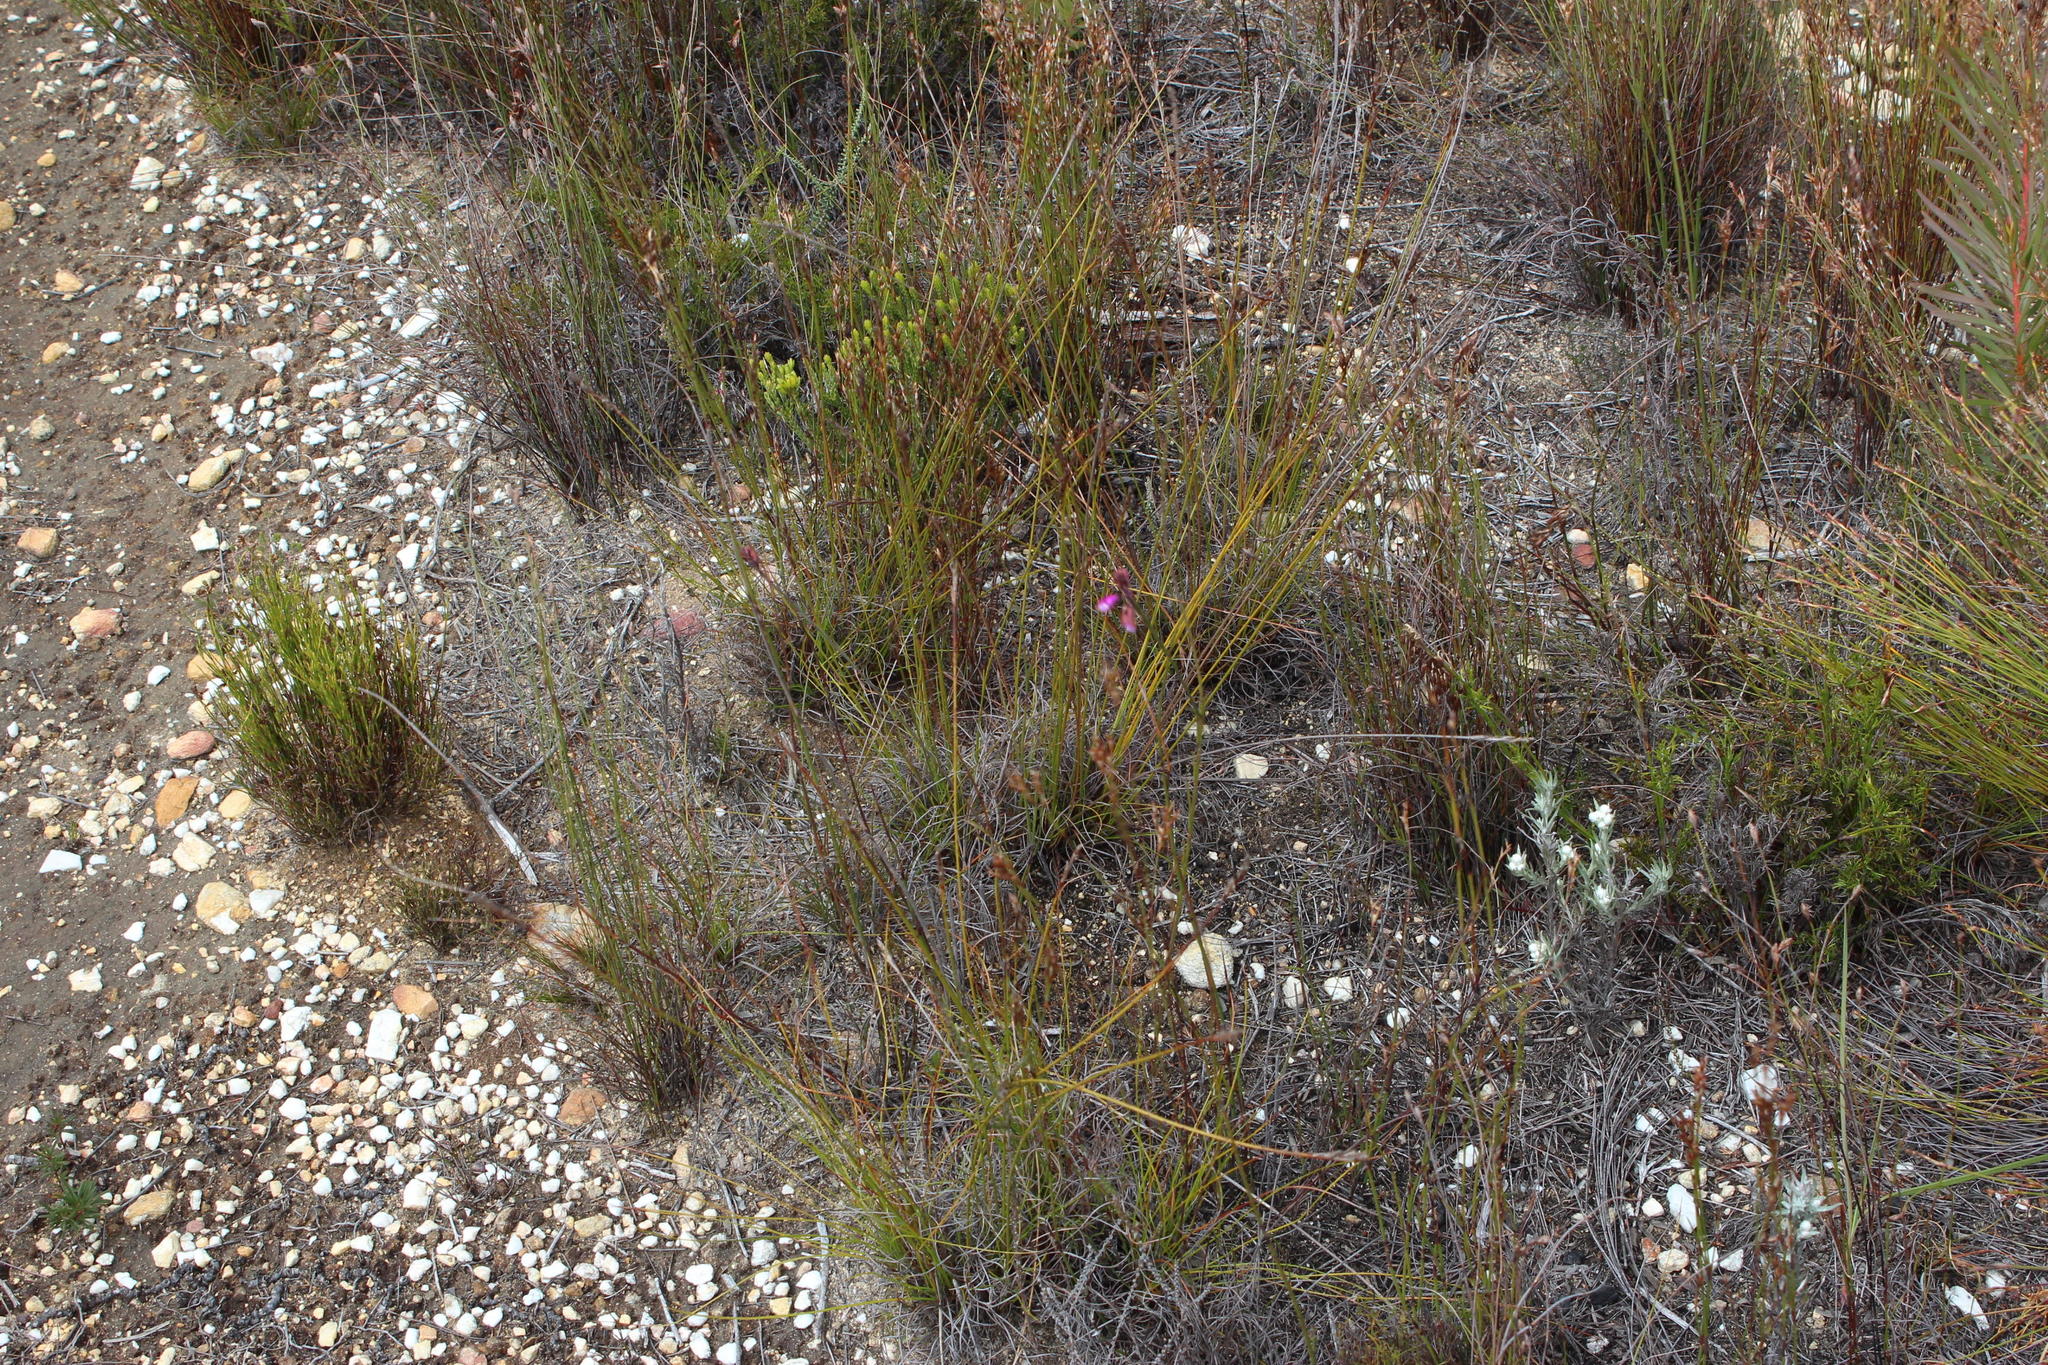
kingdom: Plantae
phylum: Tracheophyta
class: Magnoliopsida
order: Fabales
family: Polygalaceae
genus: Polygala
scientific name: Polygala garcini
